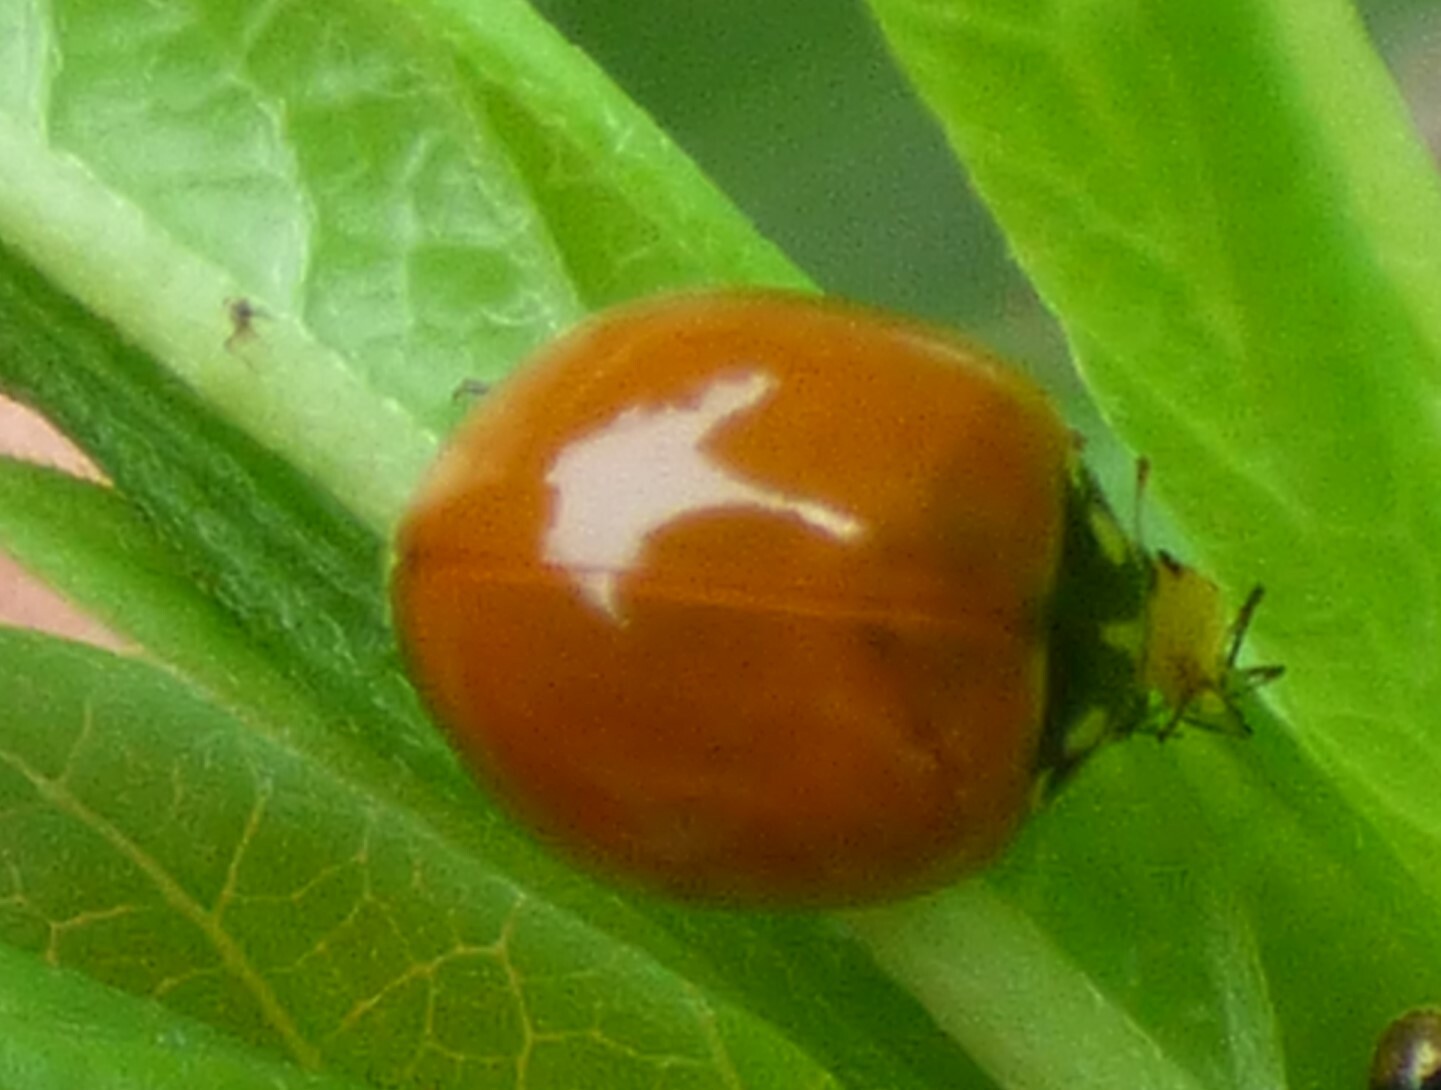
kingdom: Animalia
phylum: Arthropoda
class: Insecta
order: Coleoptera
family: Coccinellidae
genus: Cycloneda
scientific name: Cycloneda sanguinea
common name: Ladybird beetle
